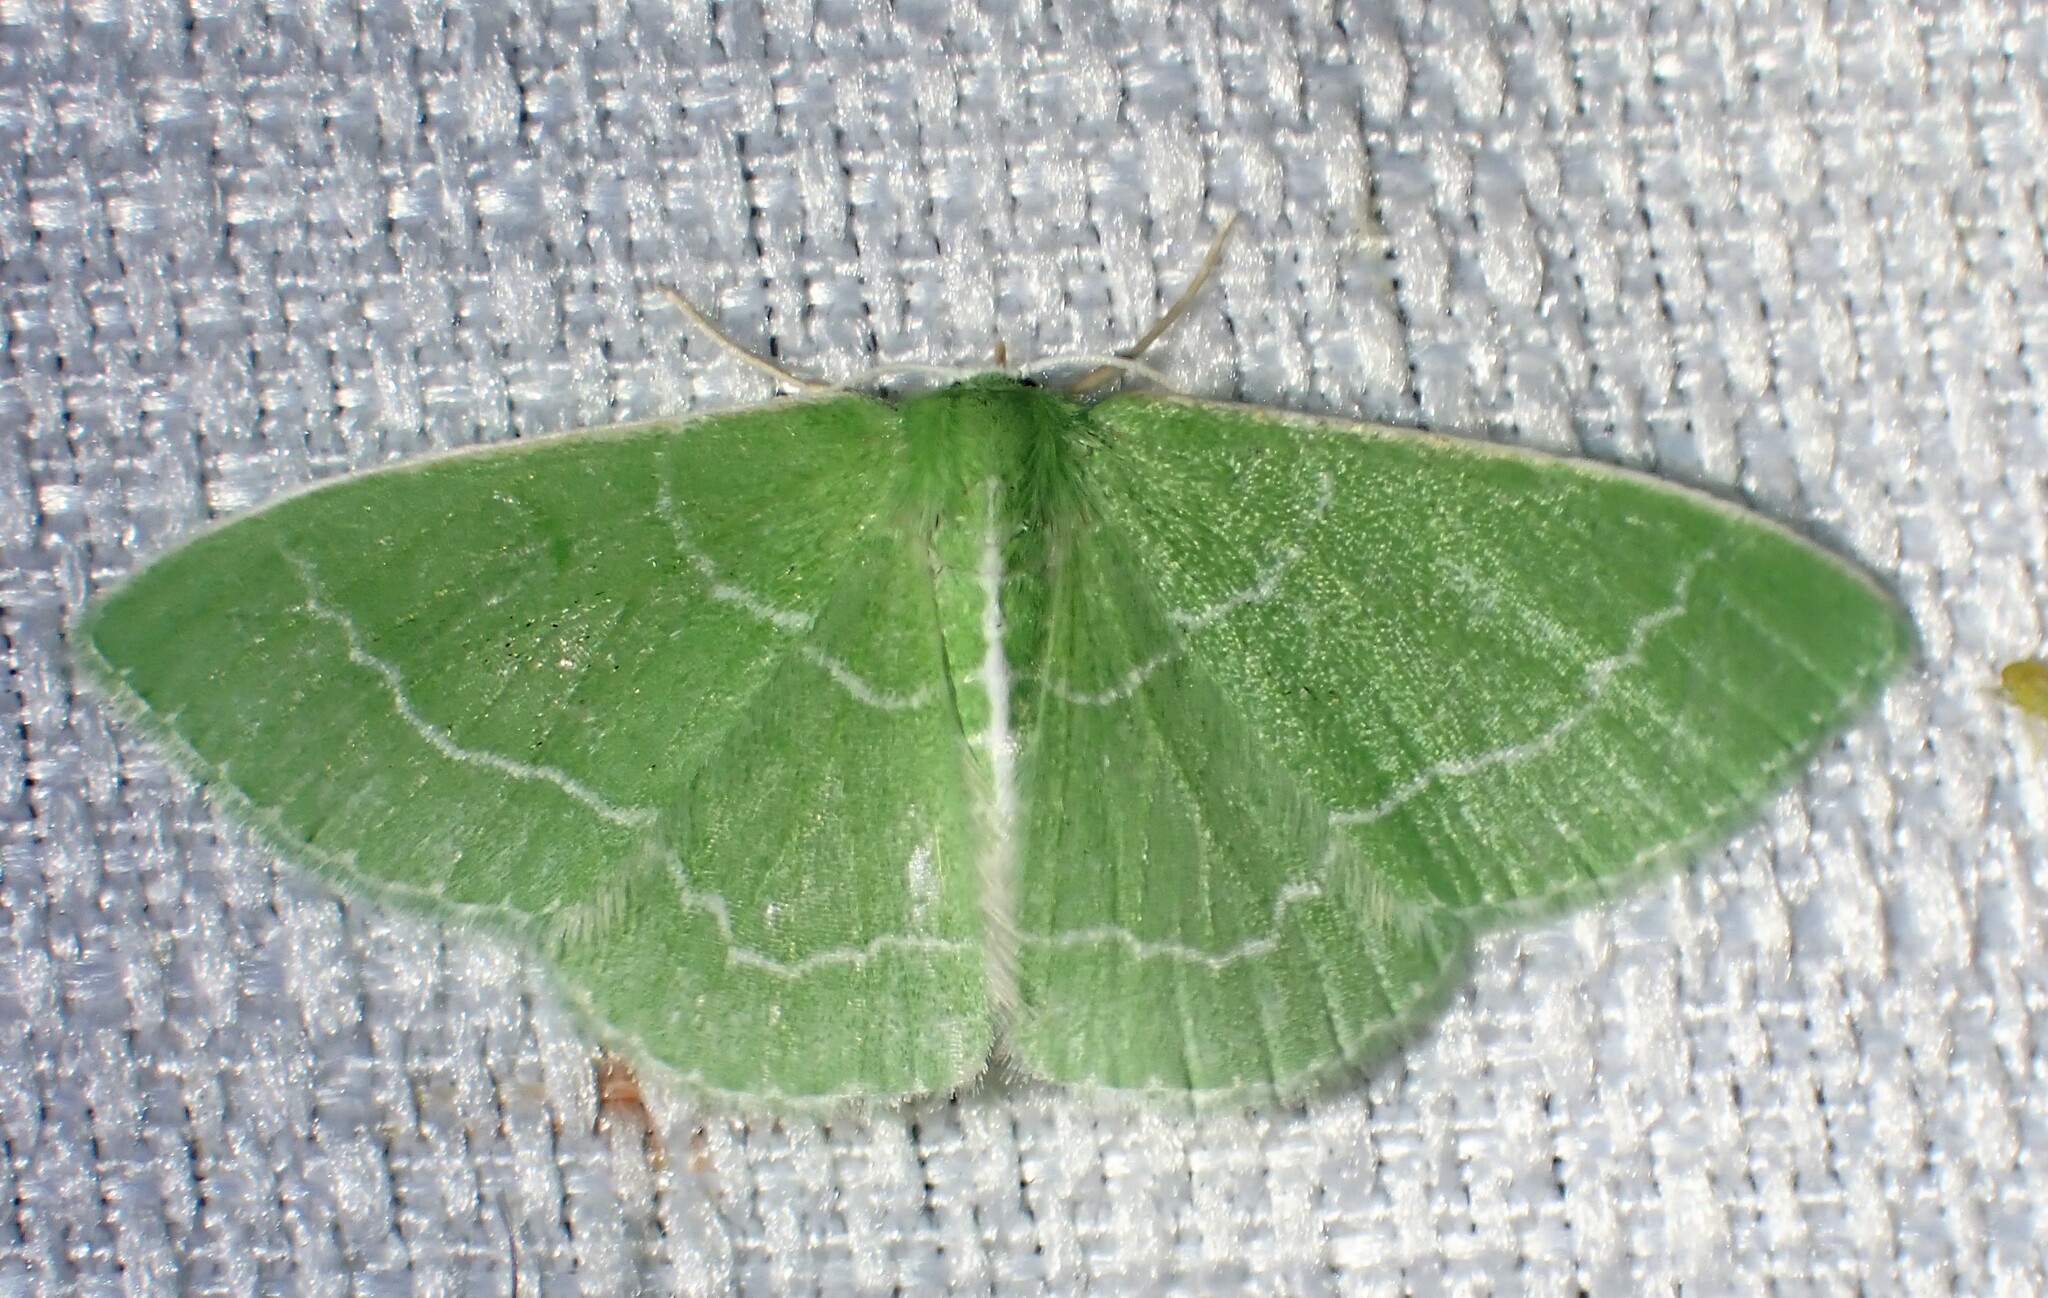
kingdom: Animalia
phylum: Arthropoda
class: Insecta
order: Lepidoptera
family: Geometridae
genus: Synchlora
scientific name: Synchlora aerata
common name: Wavy-lined emerald
